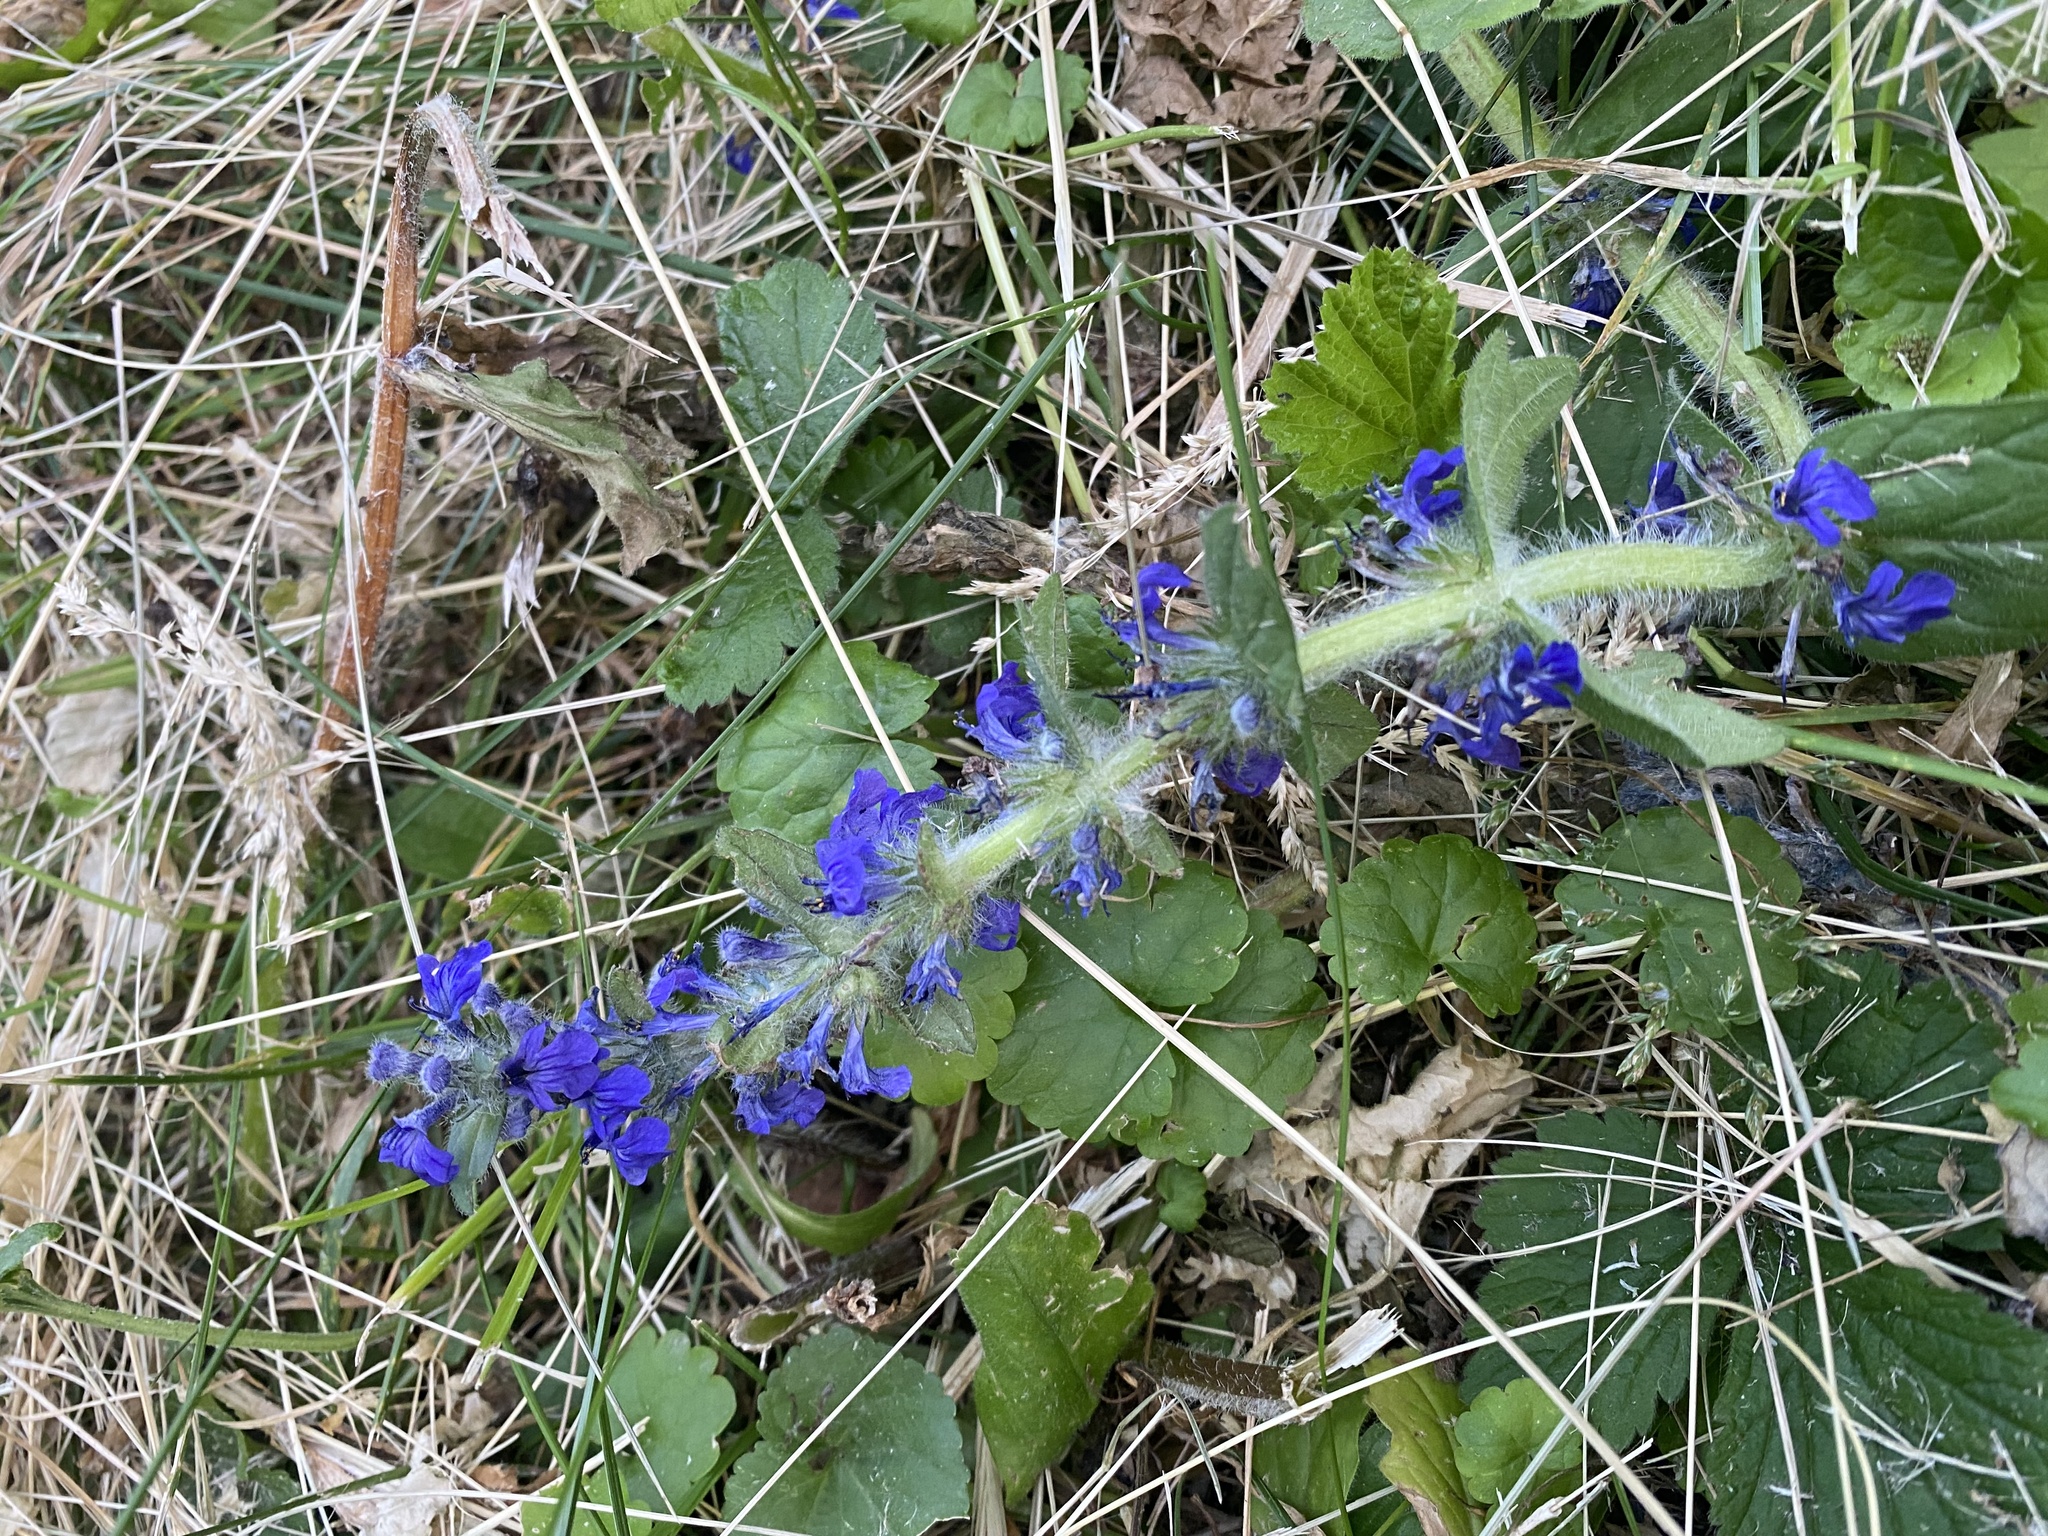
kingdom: Plantae
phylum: Tracheophyta
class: Magnoliopsida
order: Lamiales
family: Lamiaceae
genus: Ajuga
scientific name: Ajuga genevensis
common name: Blue bugle
